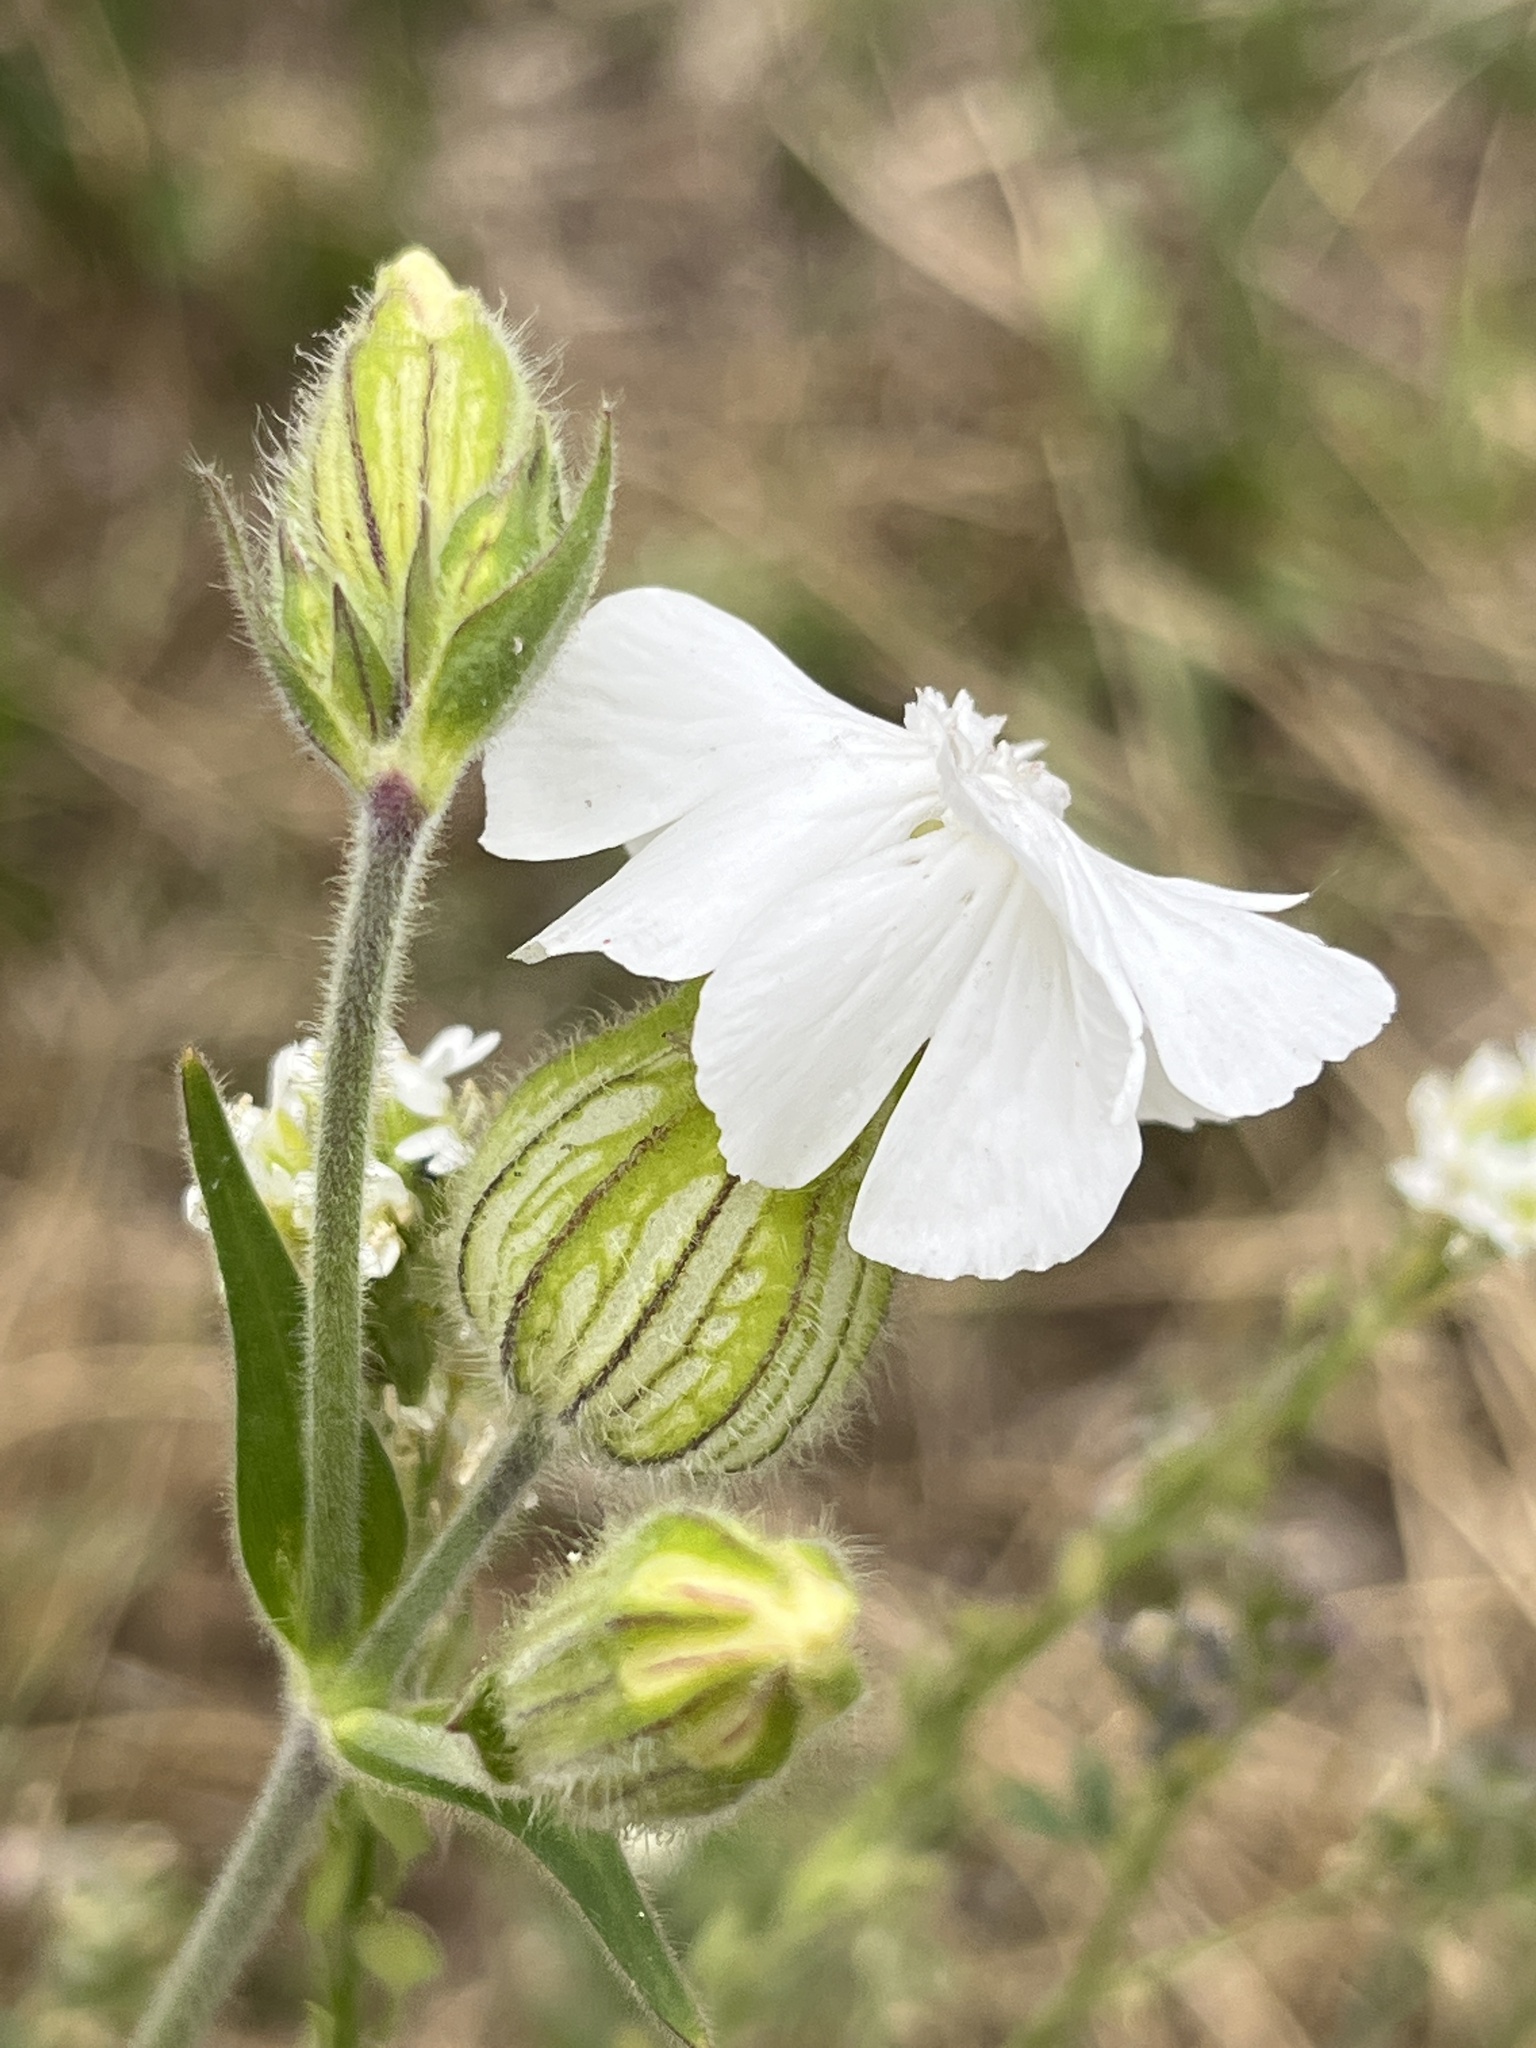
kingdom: Plantae
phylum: Tracheophyta
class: Magnoliopsida
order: Caryophyllales
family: Caryophyllaceae
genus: Silene
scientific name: Silene latifolia
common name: White campion
